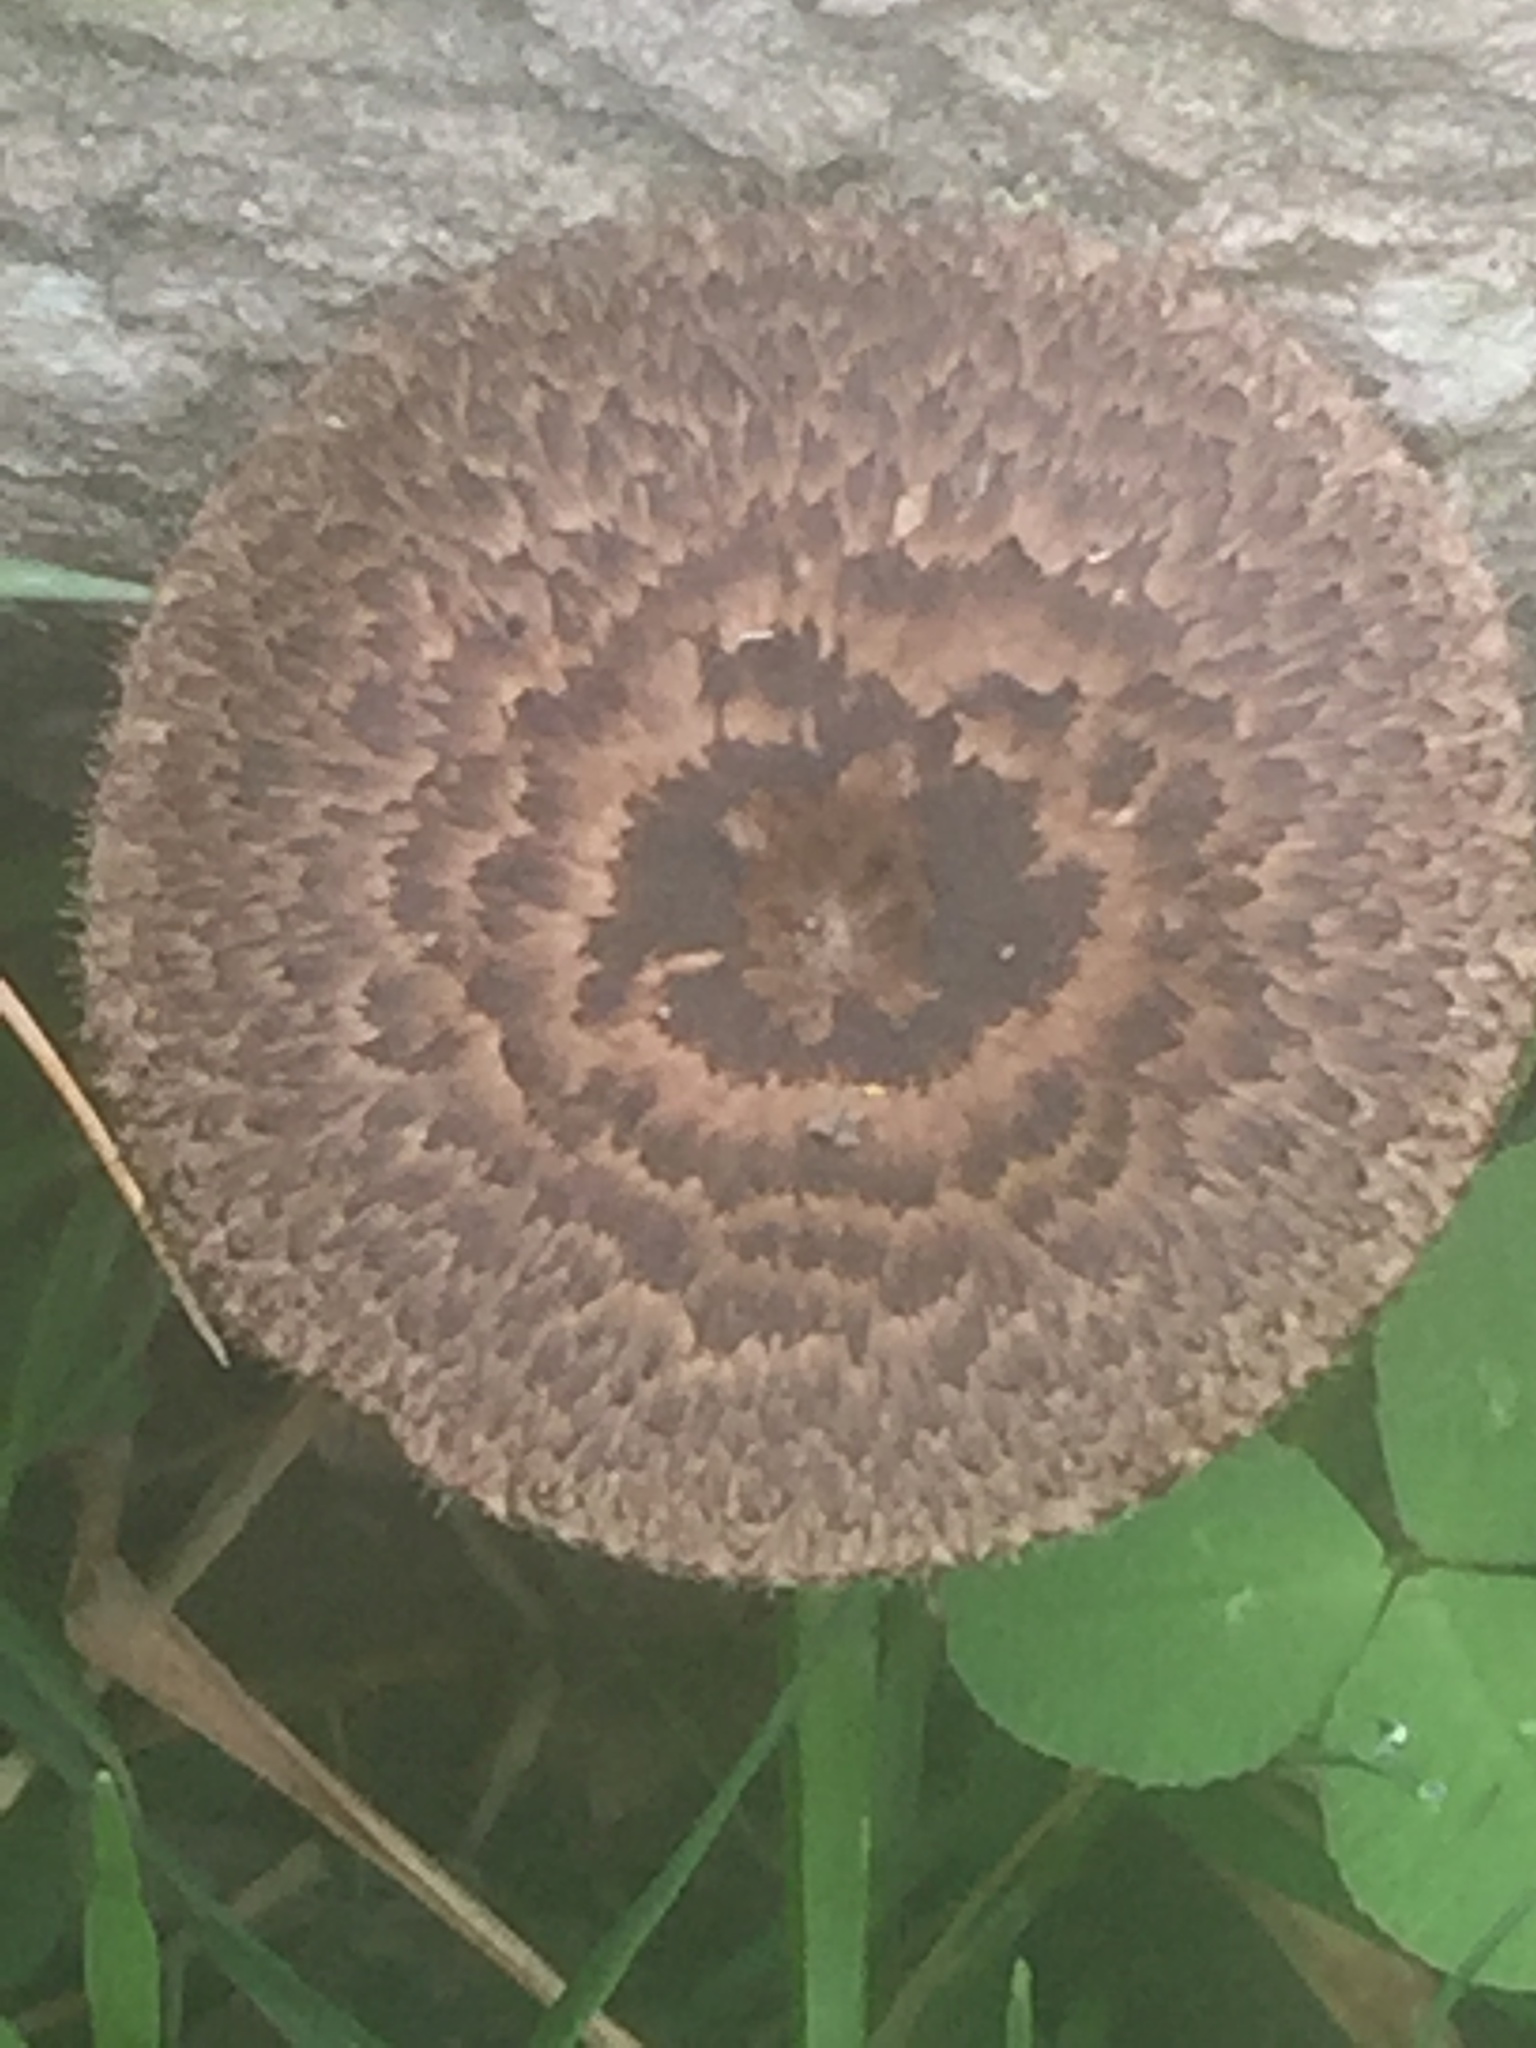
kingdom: Fungi
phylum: Basidiomycota
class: Agaricomycetes
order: Polyporales
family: Polyporaceae
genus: Lentinus
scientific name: Lentinus arcularius
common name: Spring polypore
